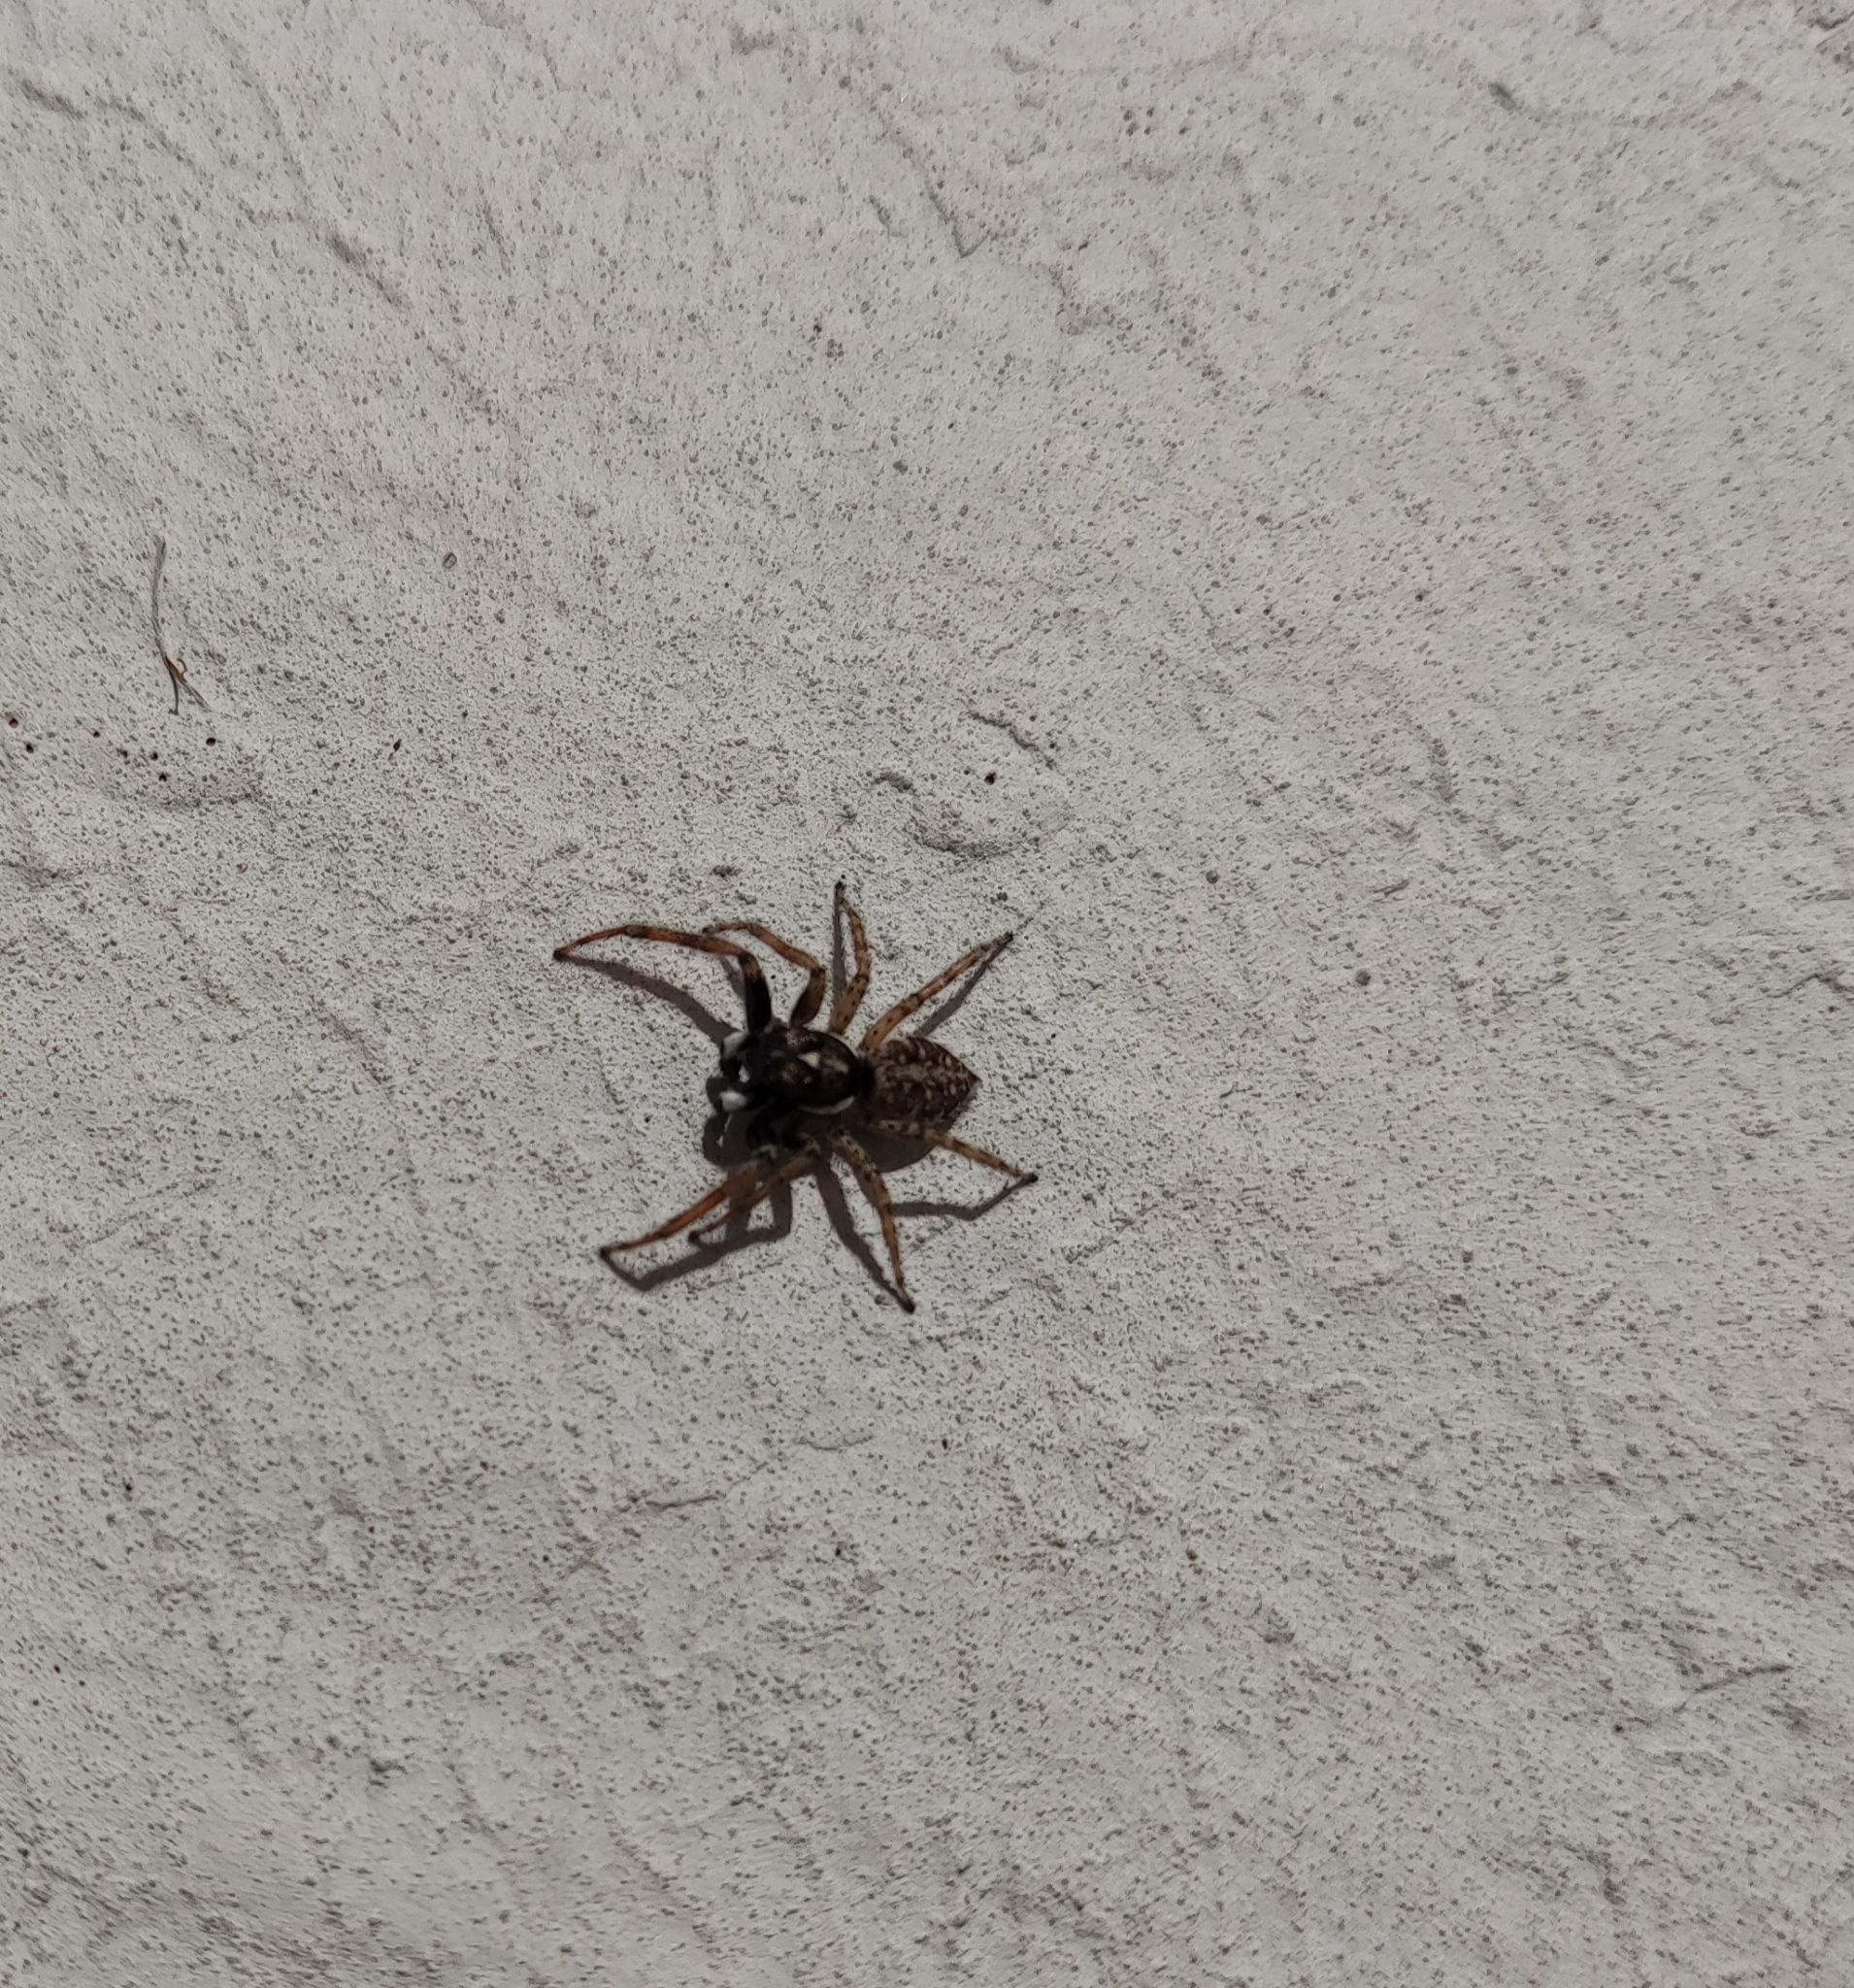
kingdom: Animalia
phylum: Arthropoda
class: Arachnida
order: Araneae
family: Salticidae
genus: Menemerus
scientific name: Menemerus semilimbatus
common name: Jumping spider
